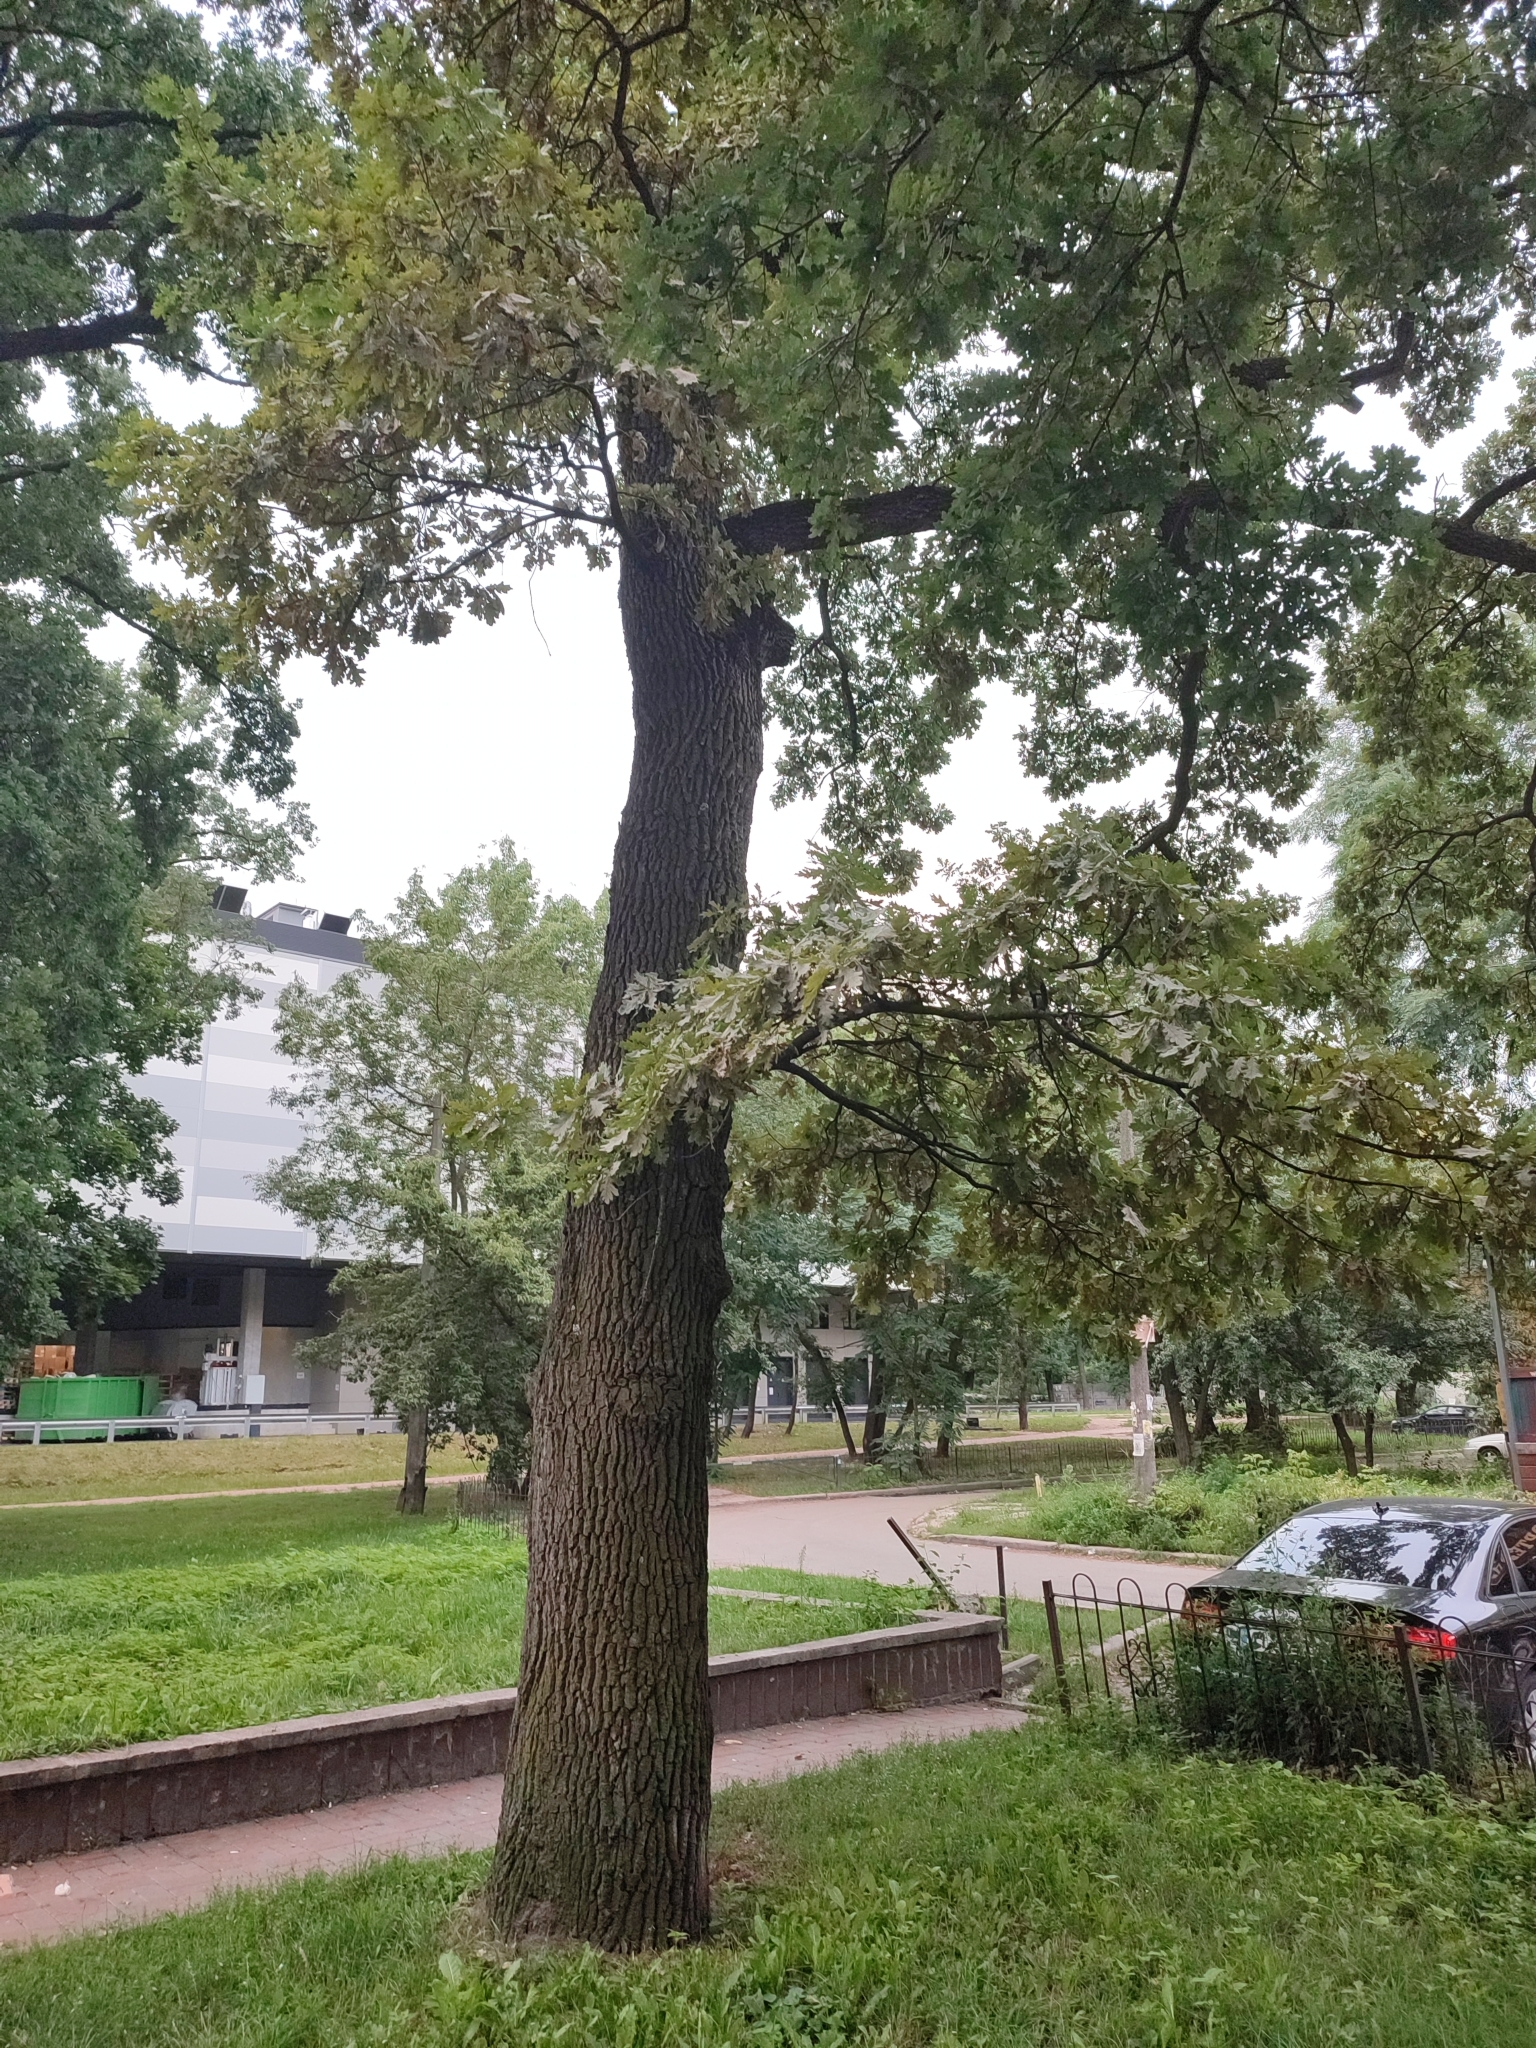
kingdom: Plantae
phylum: Tracheophyta
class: Magnoliopsida
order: Fagales
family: Fagaceae
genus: Quercus
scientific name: Quercus robur
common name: Pedunculate oak
